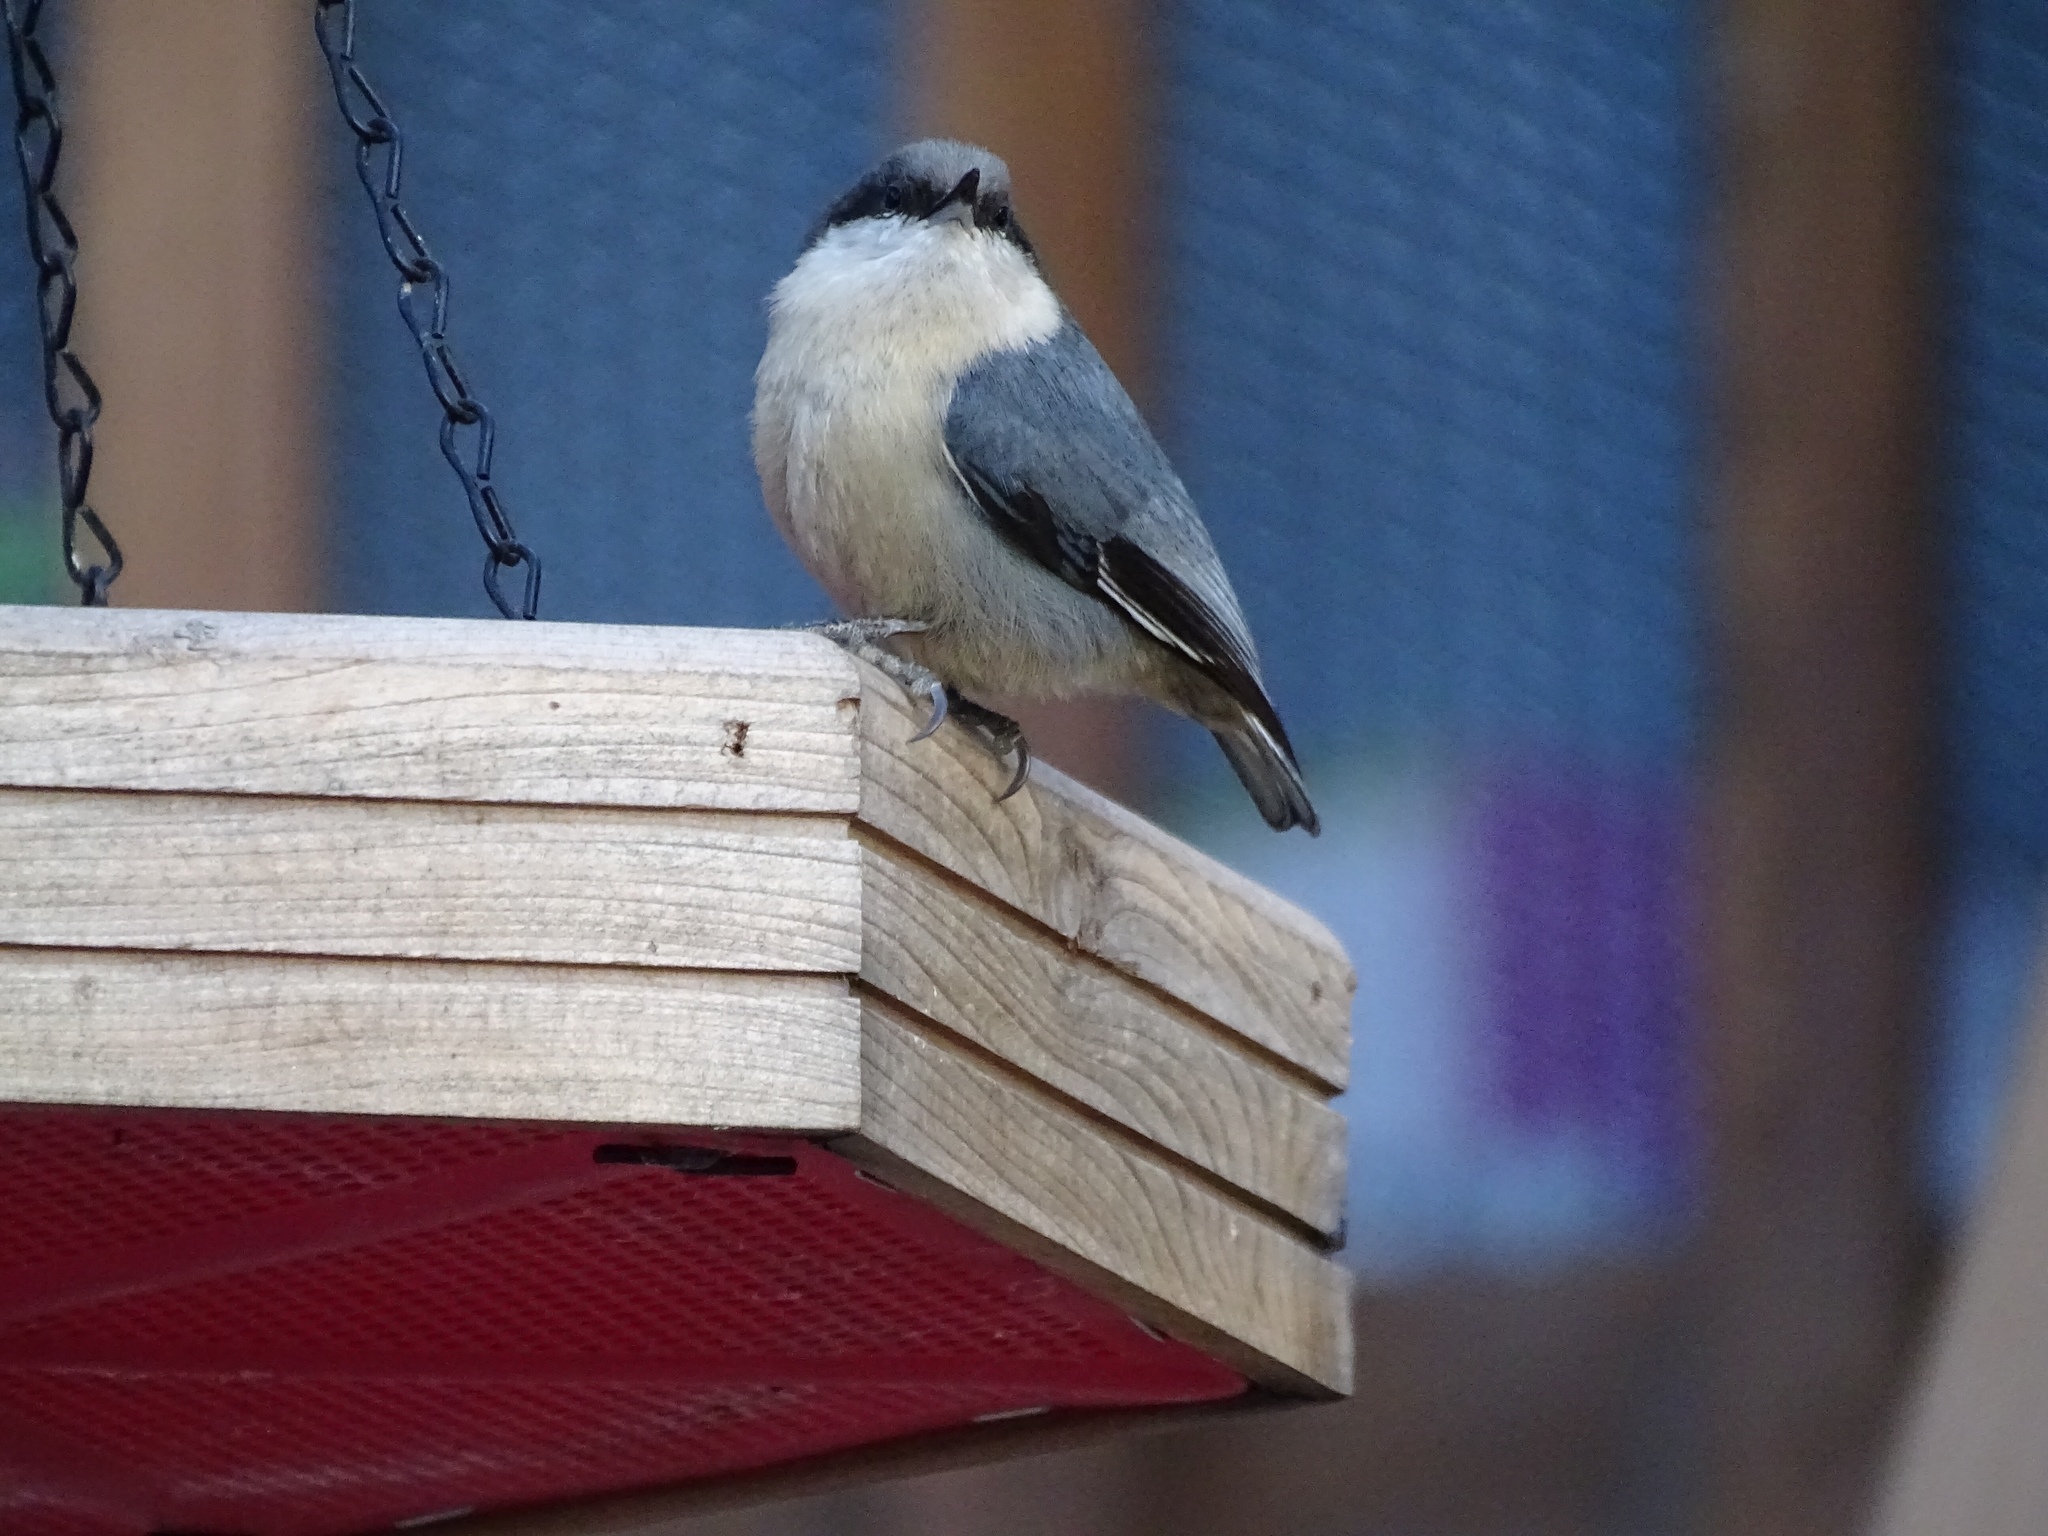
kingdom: Animalia
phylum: Chordata
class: Aves
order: Passeriformes
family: Sittidae
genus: Sitta
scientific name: Sitta pygmaea
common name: Pygmy nuthatch
